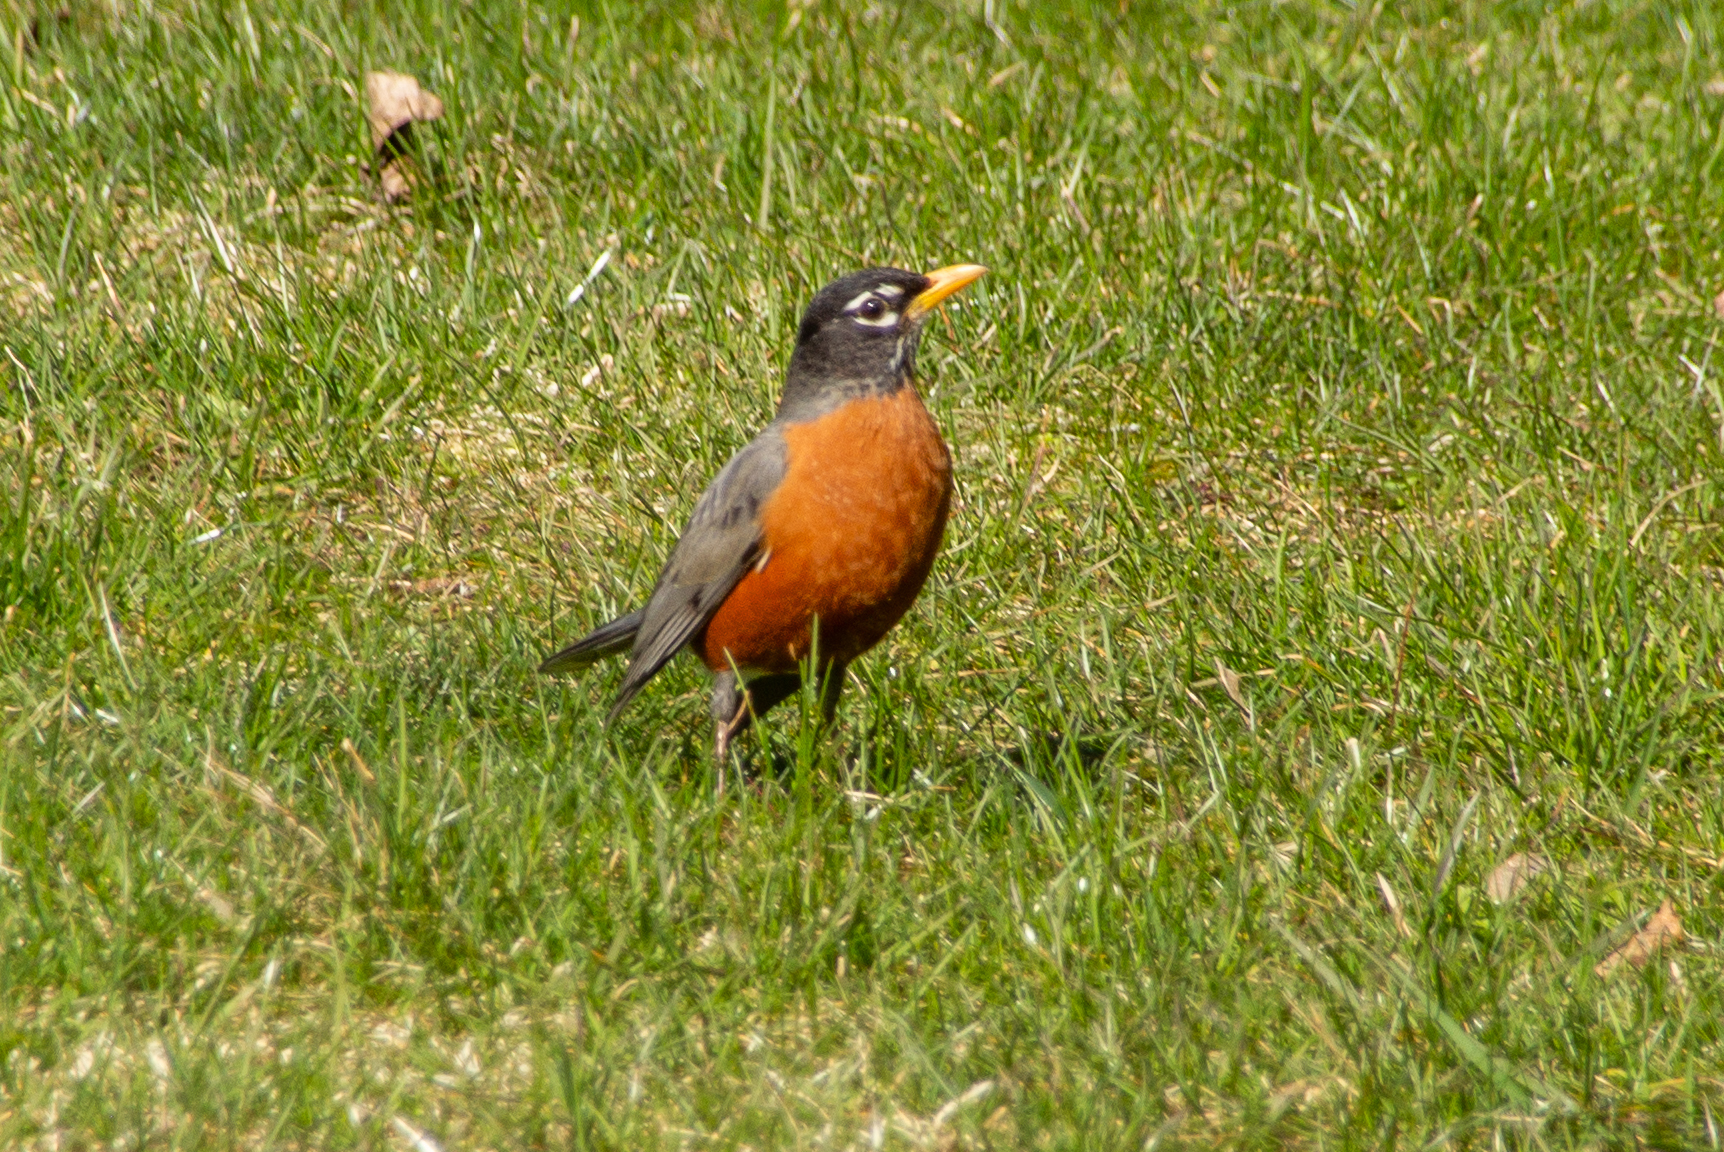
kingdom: Animalia
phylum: Chordata
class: Aves
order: Passeriformes
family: Turdidae
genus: Turdus
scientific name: Turdus migratorius
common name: American robin
